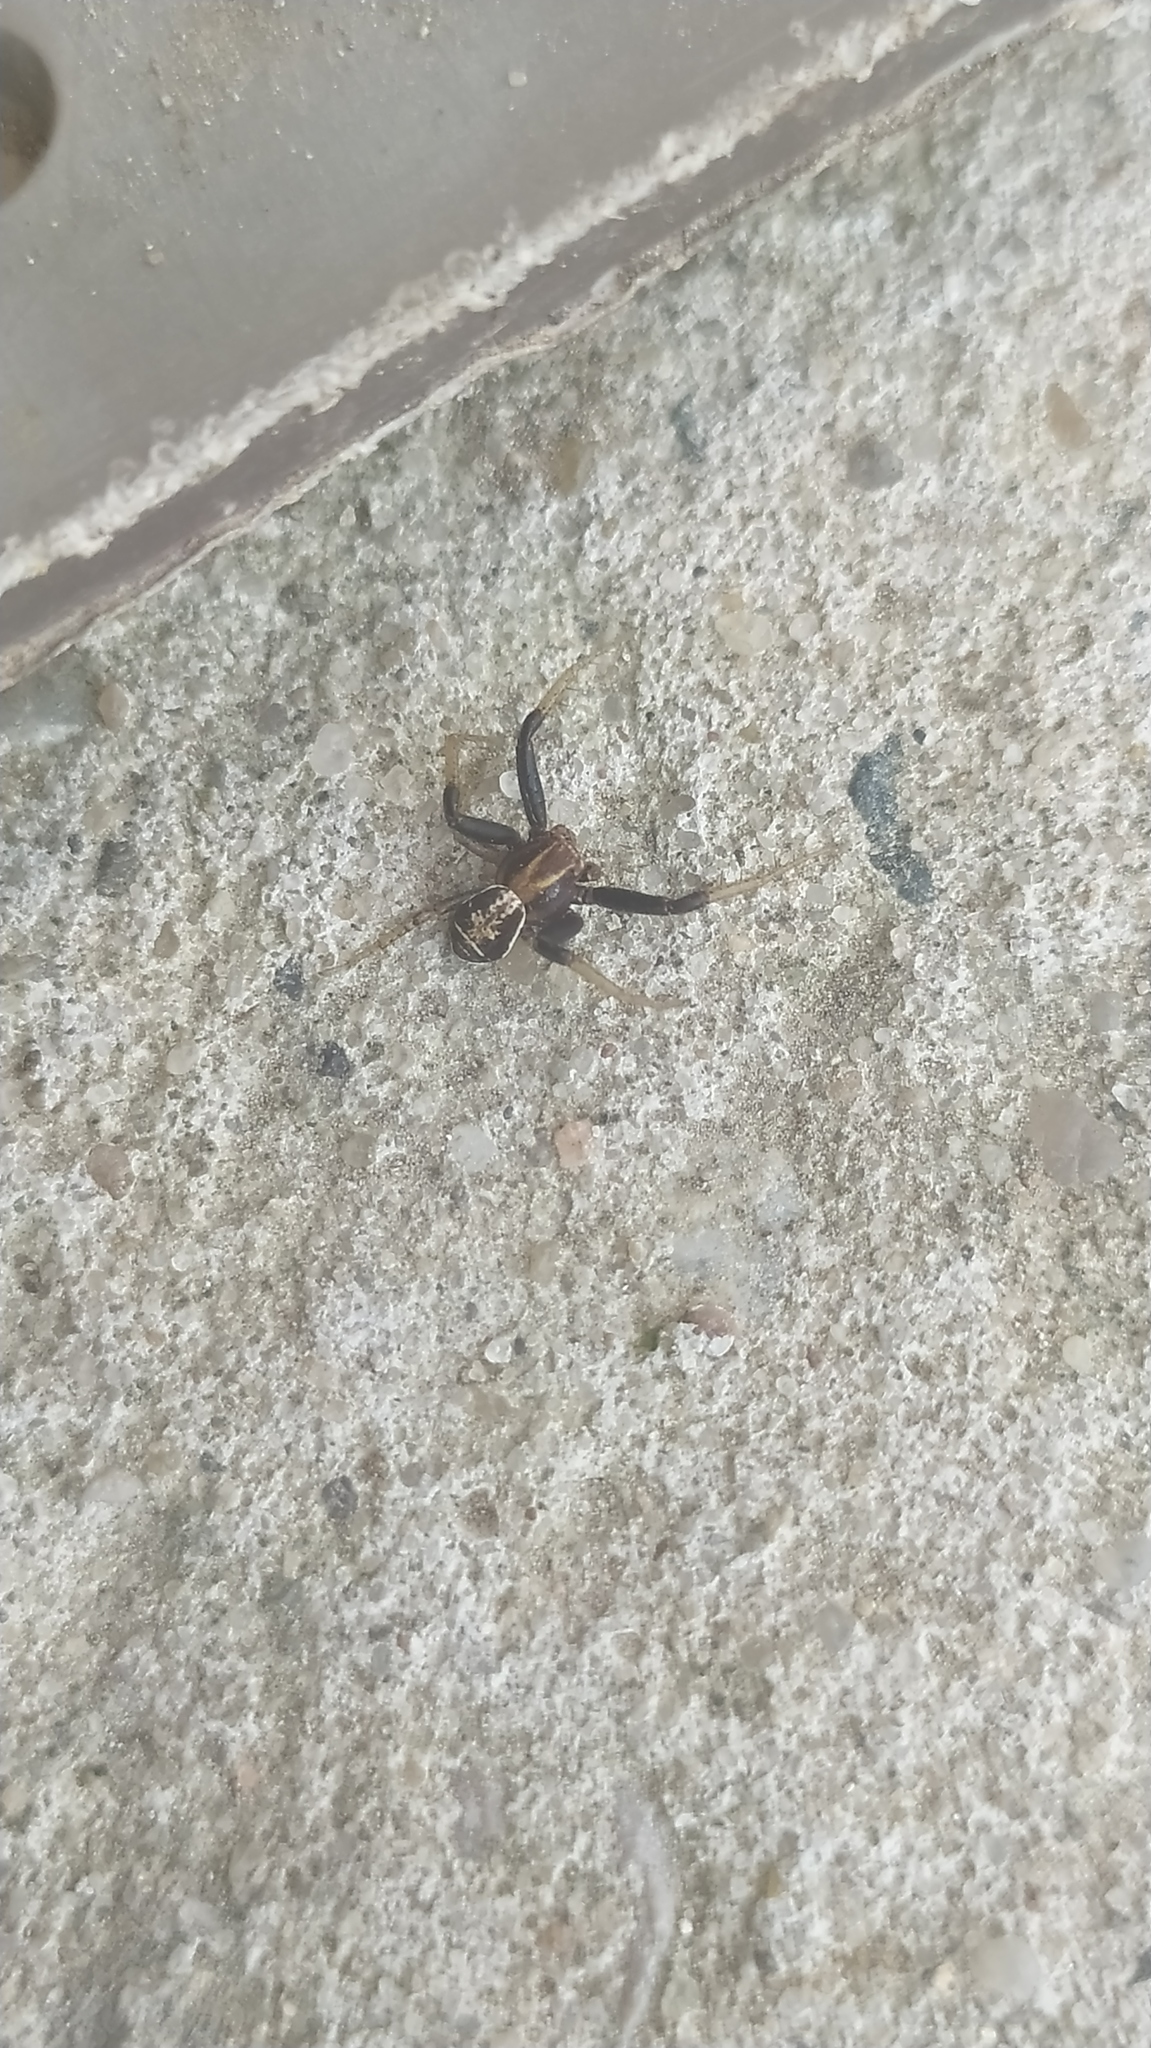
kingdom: Animalia
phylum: Arthropoda
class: Arachnida
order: Araneae
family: Thomisidae
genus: Xysticus
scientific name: Xysticus ulmi
